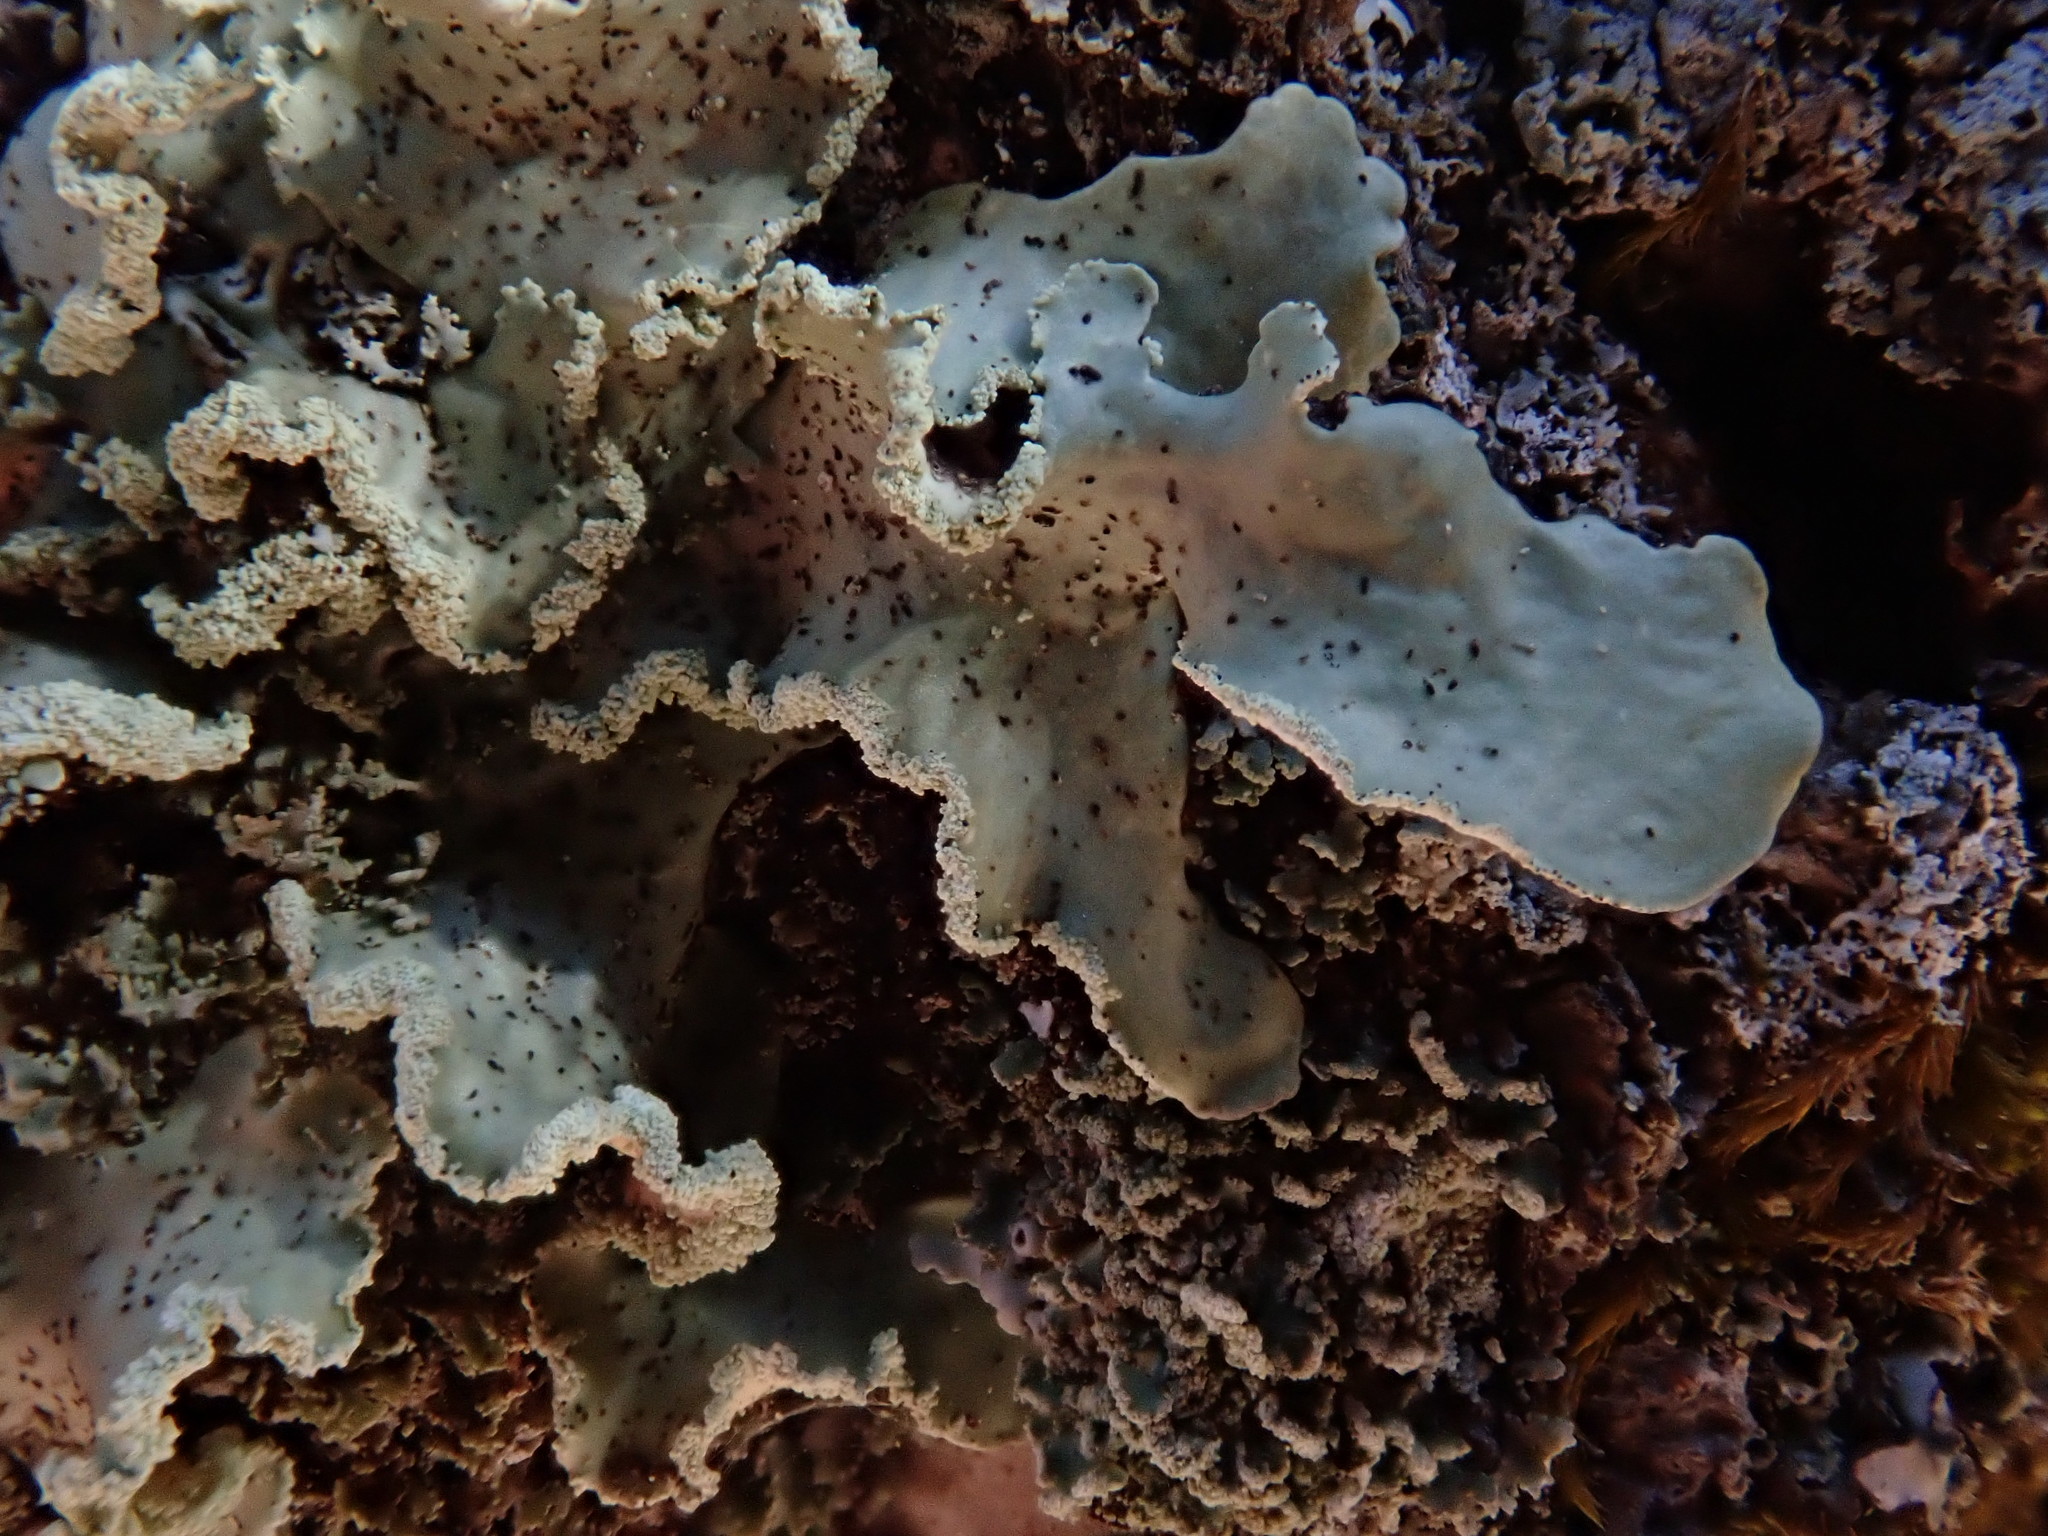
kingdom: Fungi
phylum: Ascomycota
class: Lecanoromycetes
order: Lecanorales
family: Parmeliaceae
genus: Usnocetraria
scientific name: Usnocetraria oakesiana
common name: Yellow ribbon lichen
